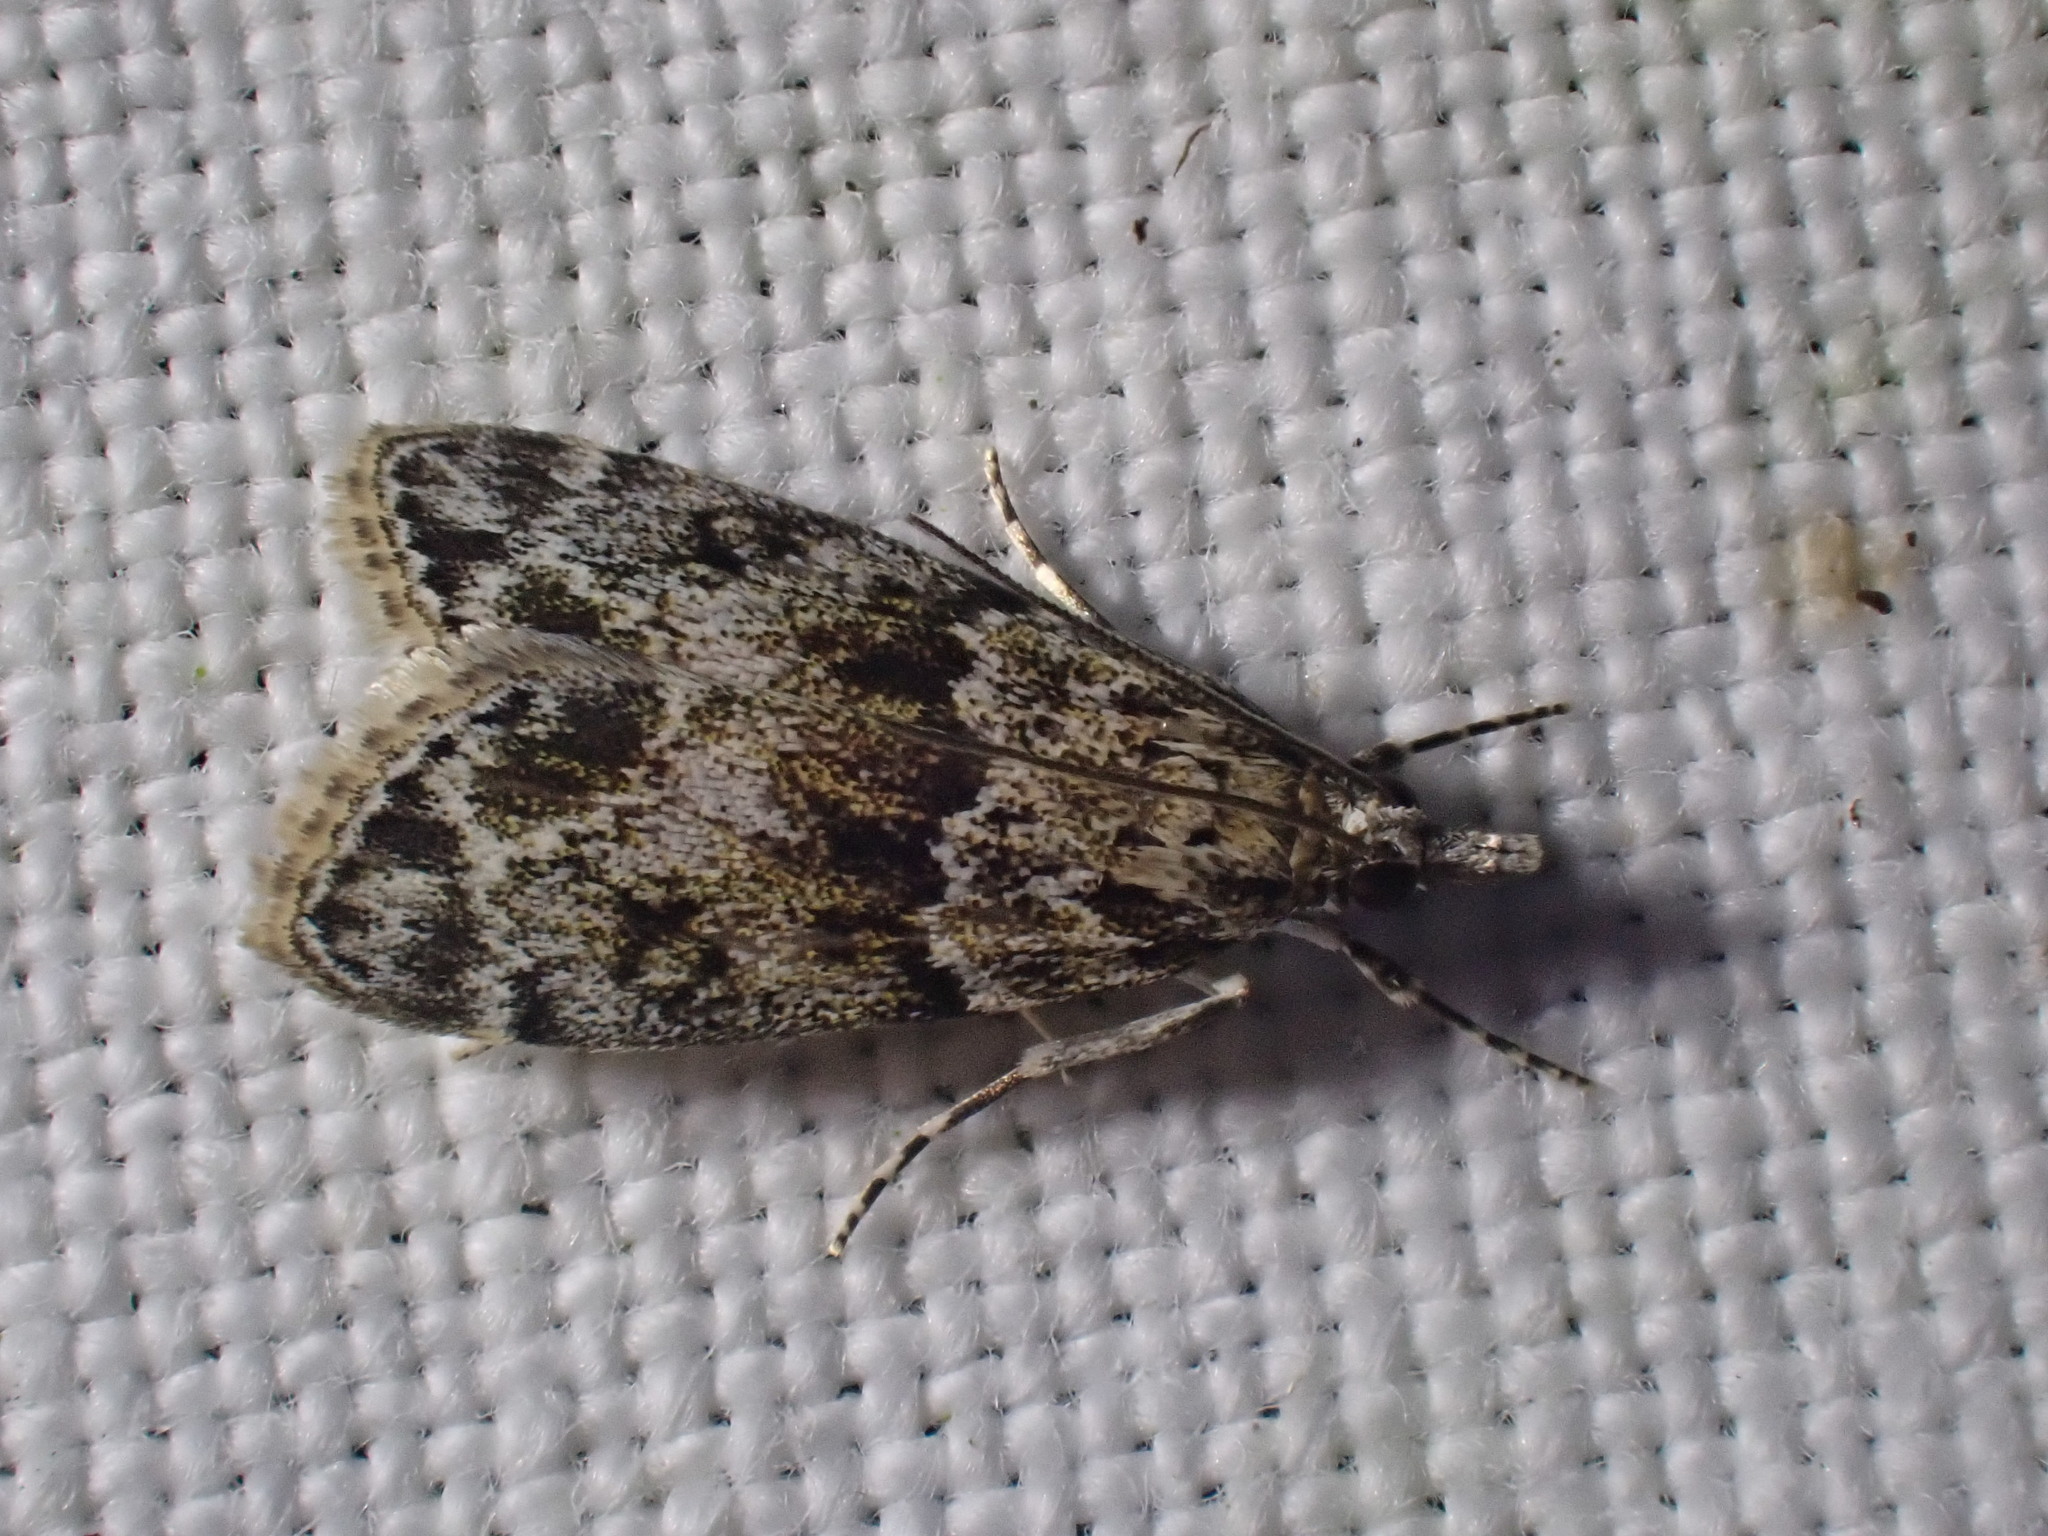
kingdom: Animalia
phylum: Arthropoda
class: Insecta
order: Lepidoptera
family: Crambidae
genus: Eudonia
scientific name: Eudonia mercurella
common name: Small grey
